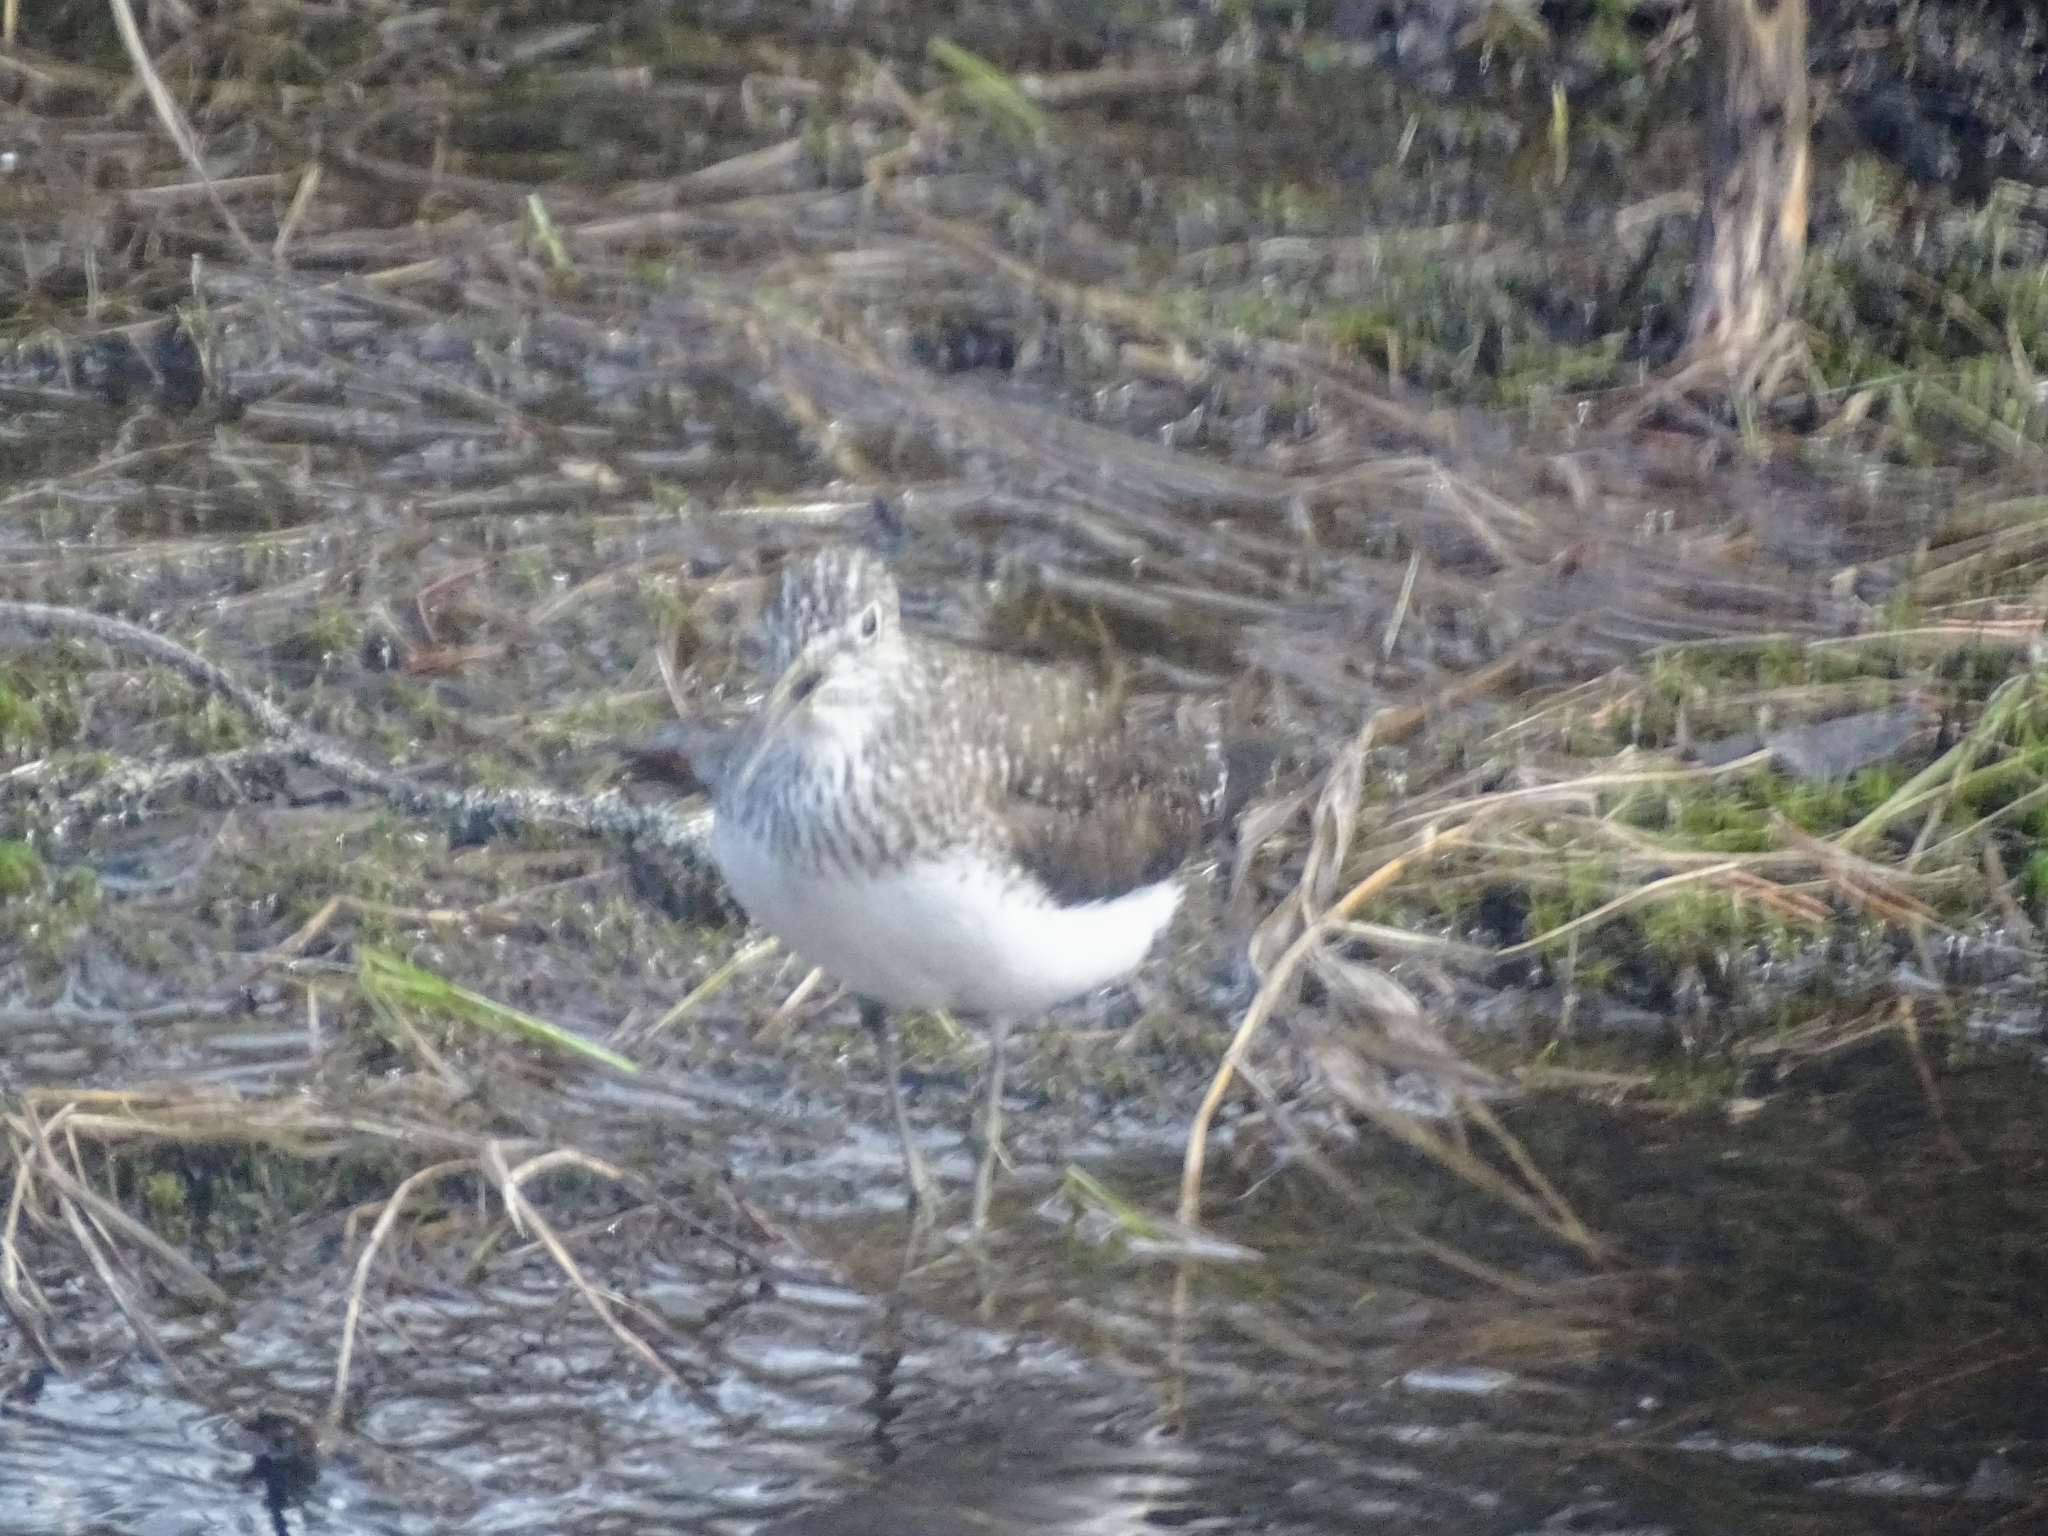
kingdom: Animalia
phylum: Chordata
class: Aves
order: Charadriiformes
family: Scolopacidae
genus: Tringa
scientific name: Tringa ochropus
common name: Green sandpiper
